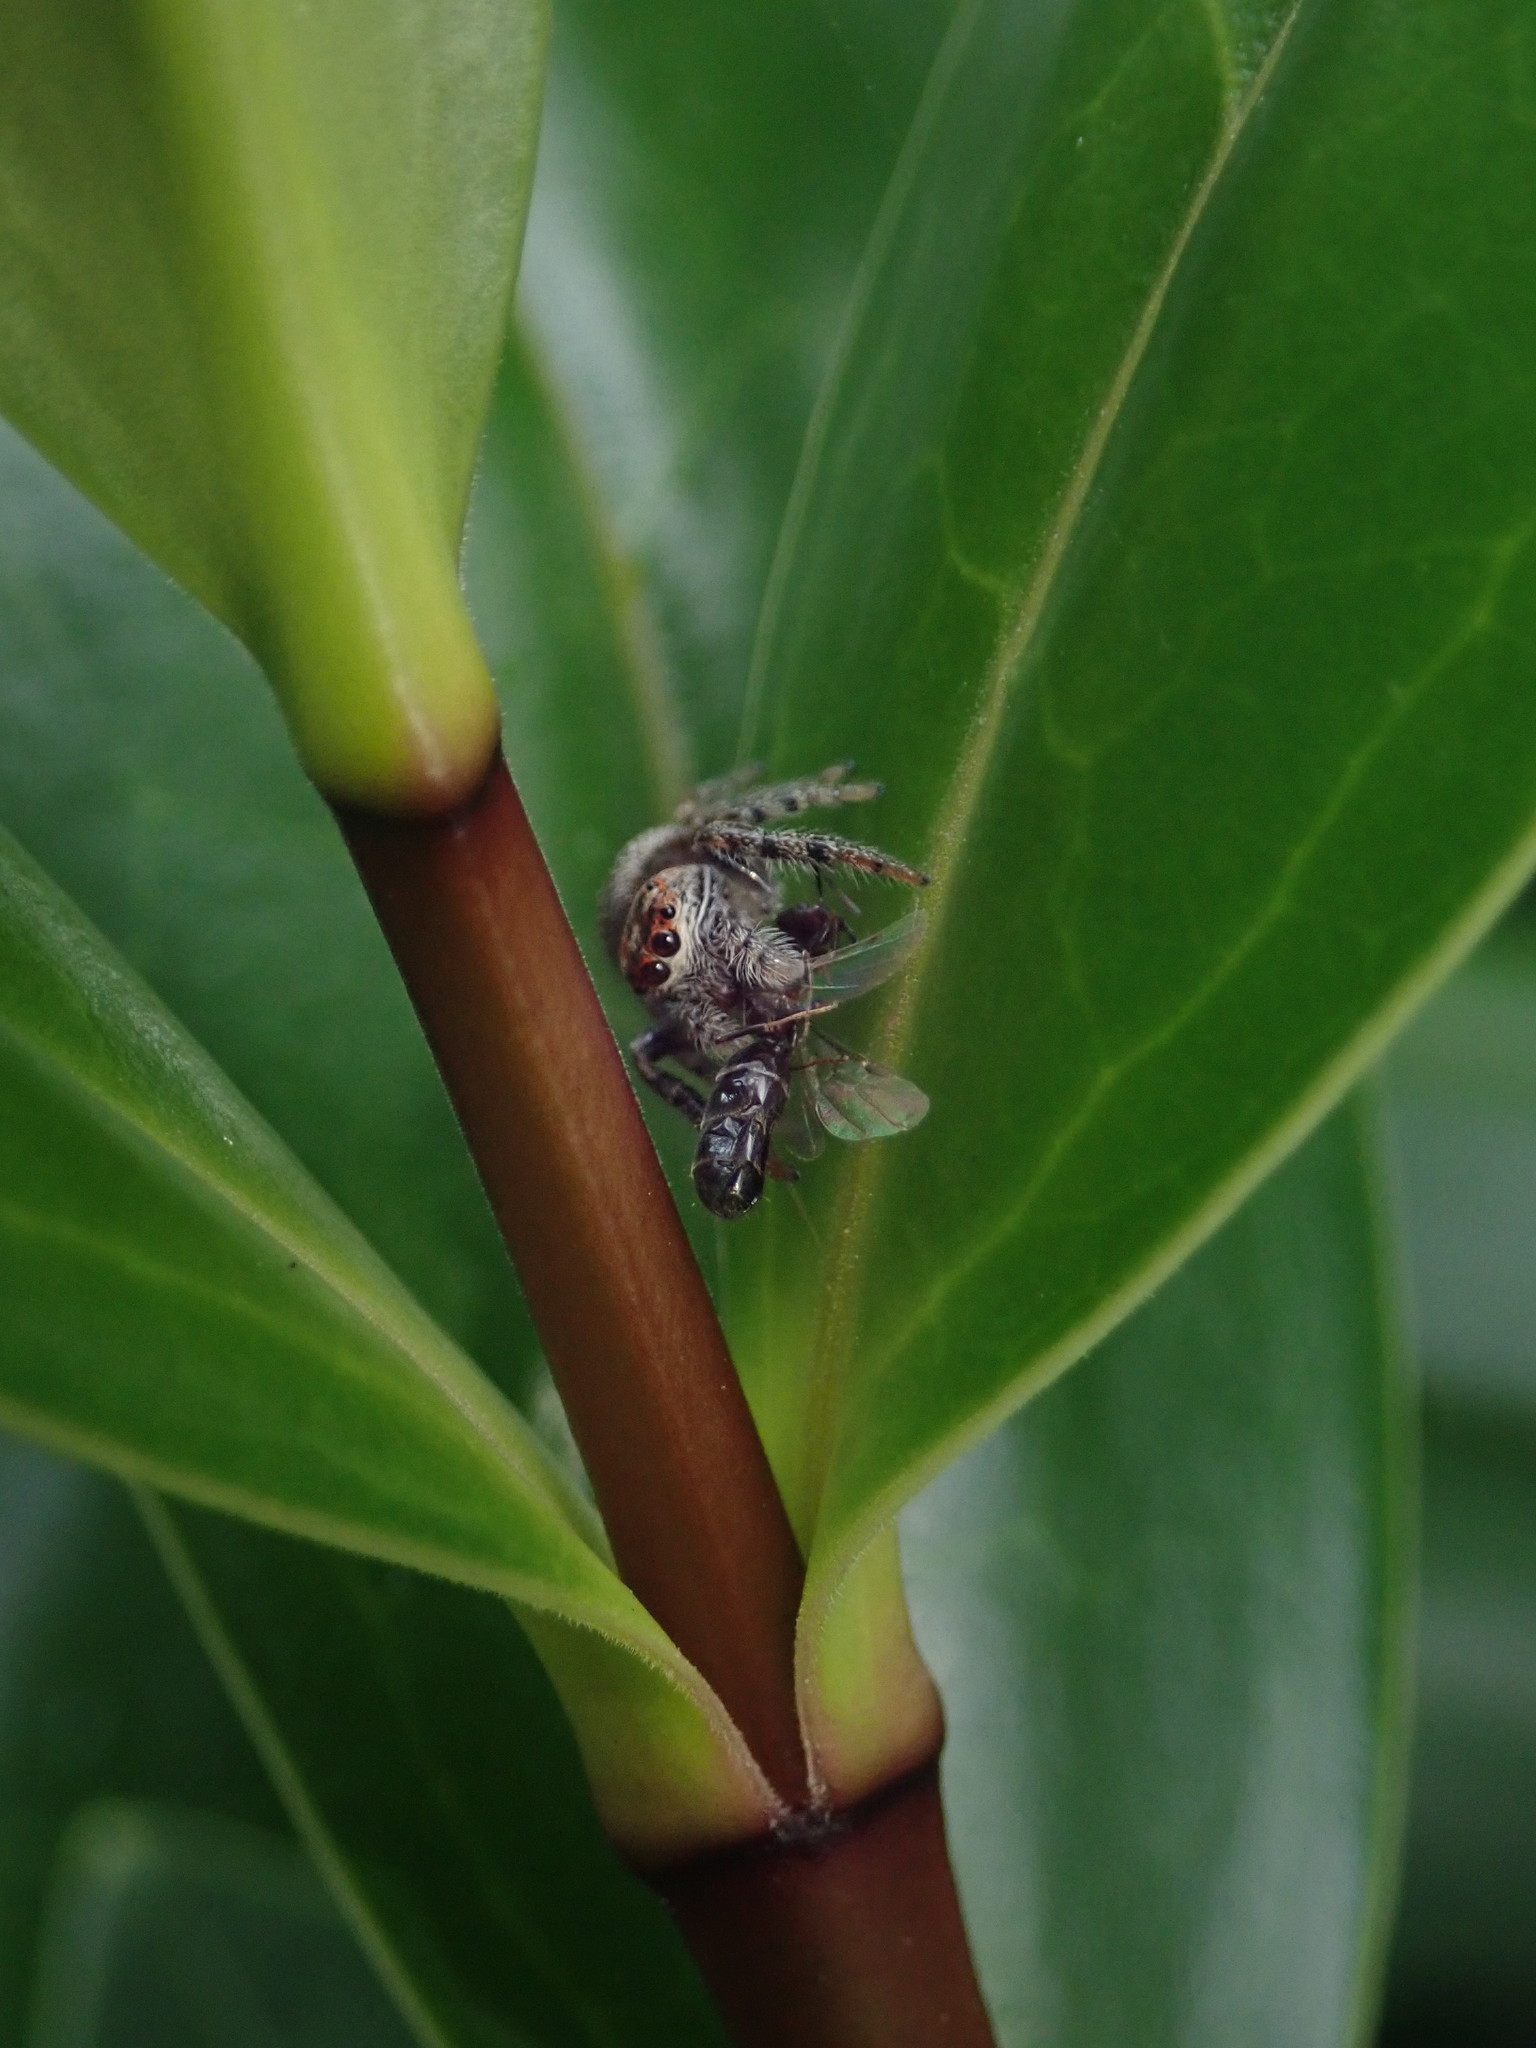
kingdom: Animalia
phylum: Arthropoda
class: Arachnida
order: Araneae
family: Salticidae
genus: Opisthoncus
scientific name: Opisthoncus polyphemus
